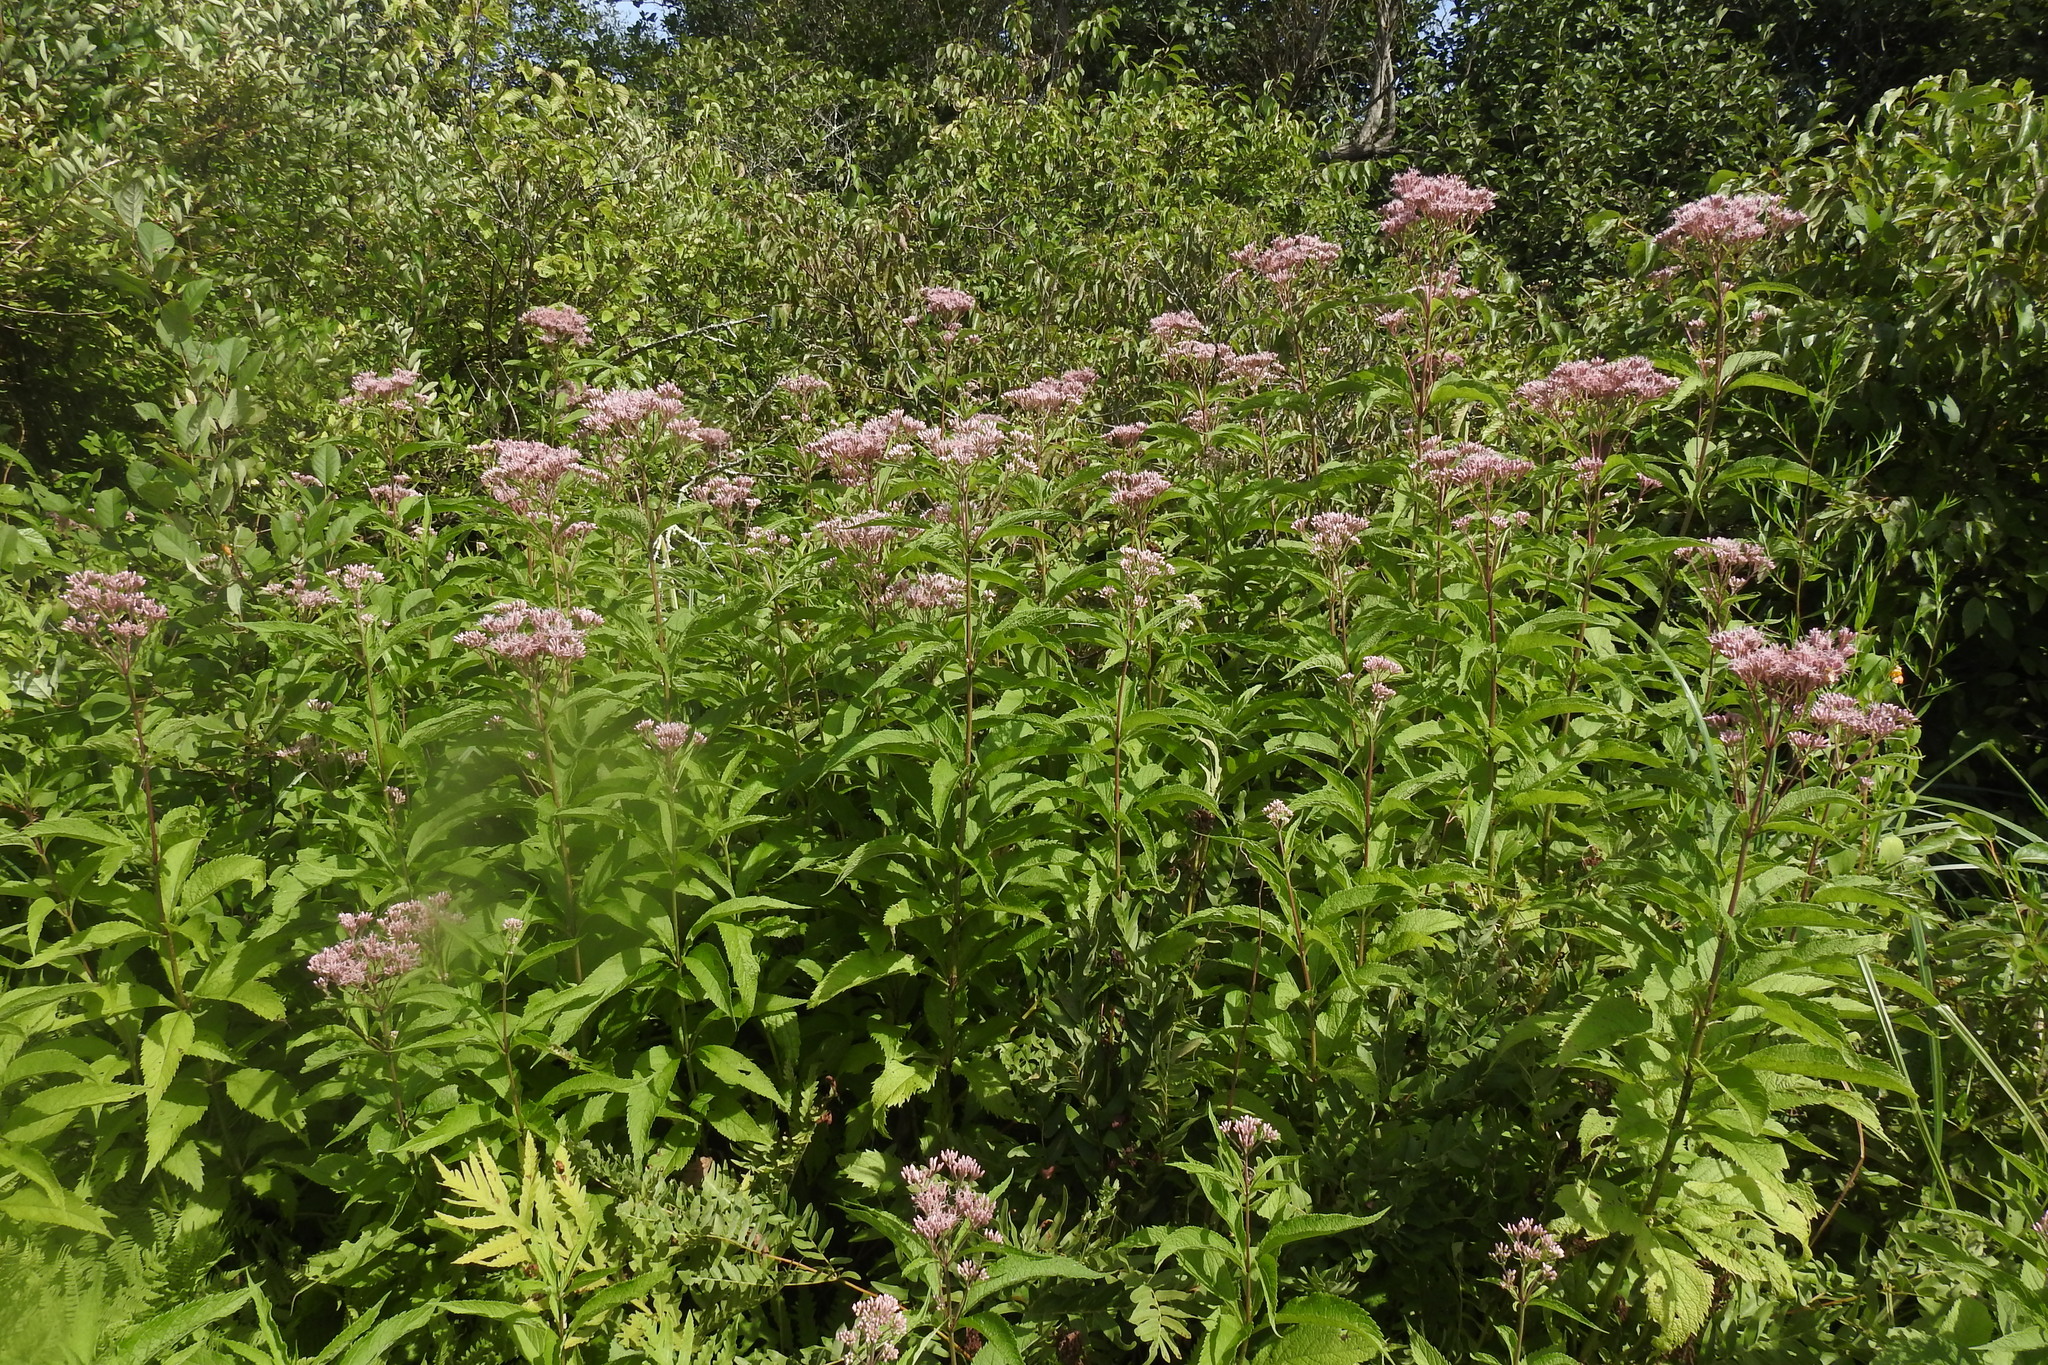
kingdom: Plantae
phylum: Tracheophyta
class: Magnoliopsida
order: Asterales
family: Asteraceae
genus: Eutrochium
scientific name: Eutrochium maculatum
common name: Spotted joe pye weed
